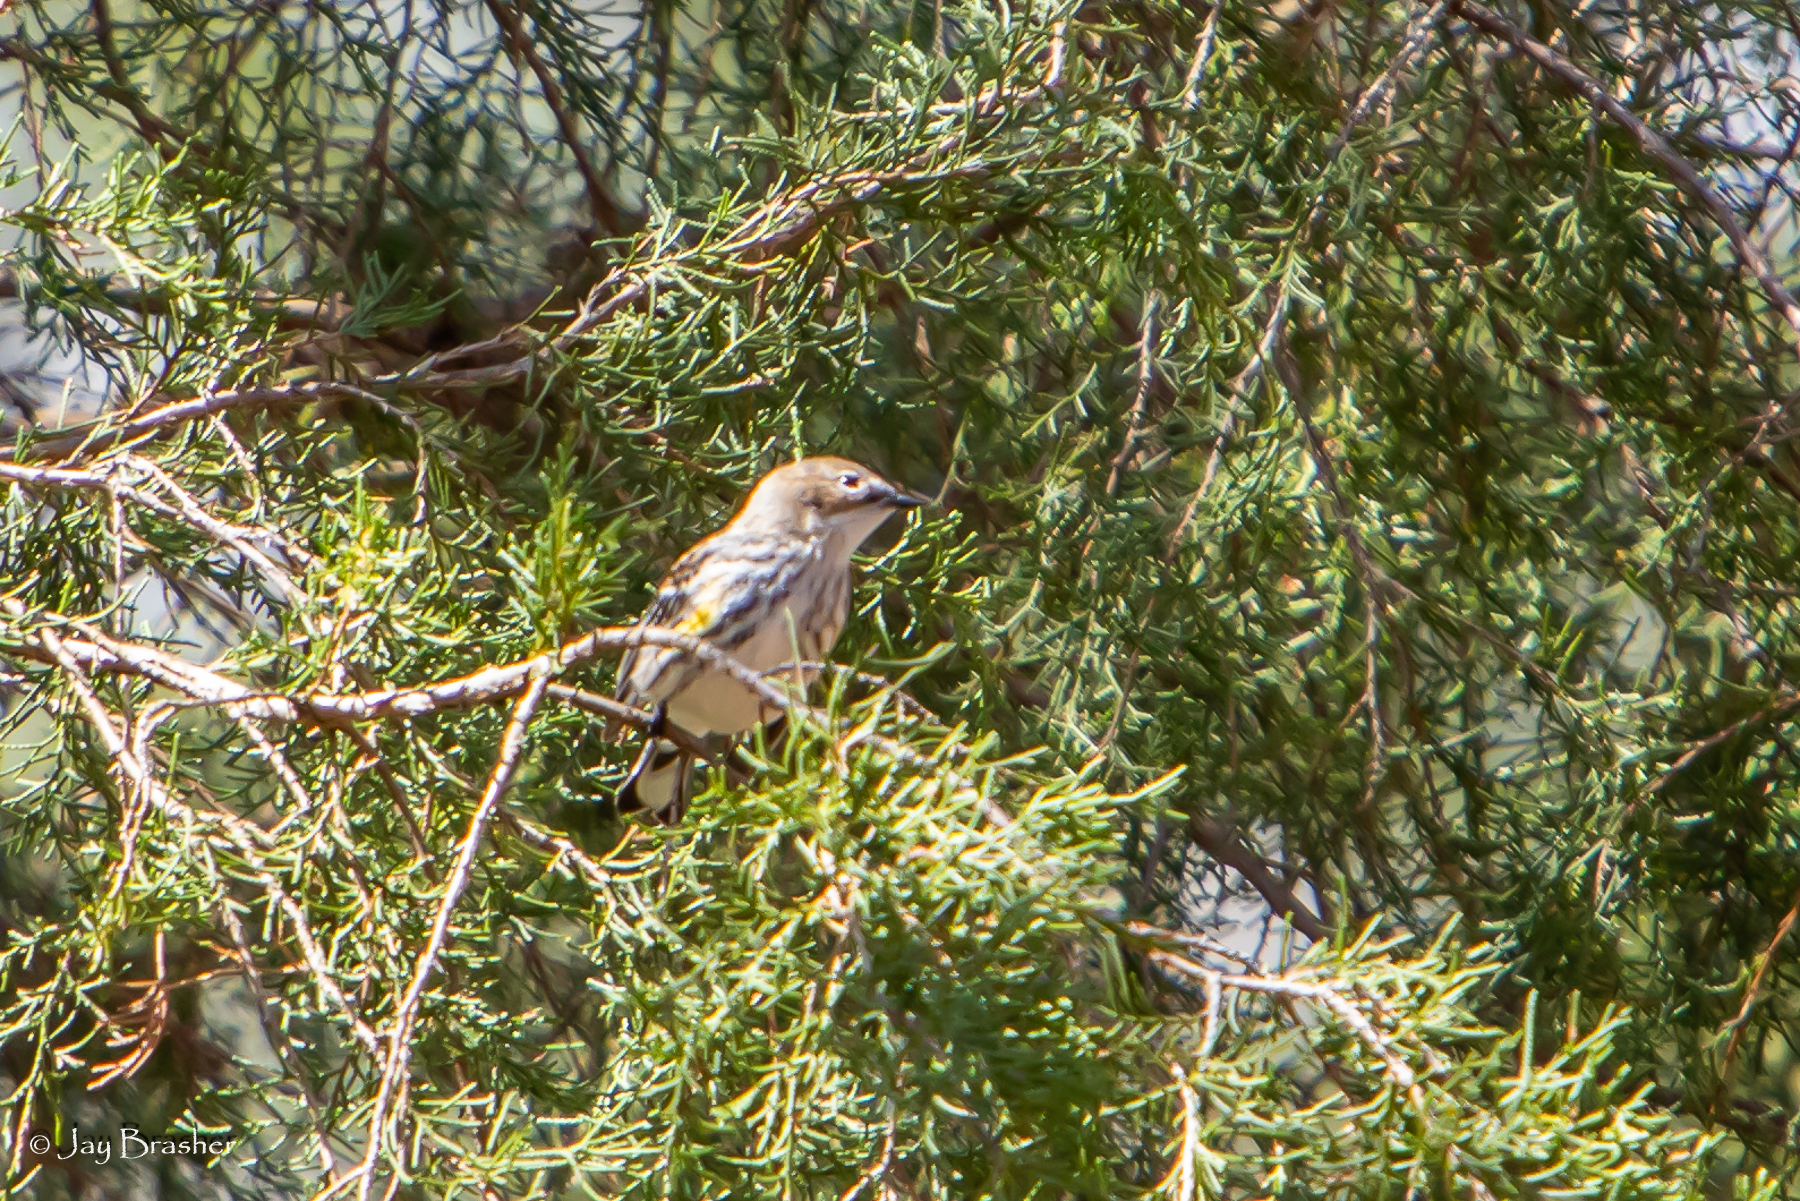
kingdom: Animalia
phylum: Chordata
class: Aves
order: Passeriformes
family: Parulidae
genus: Setophaga
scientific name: Setophaga coronata
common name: Myrtle warbler
